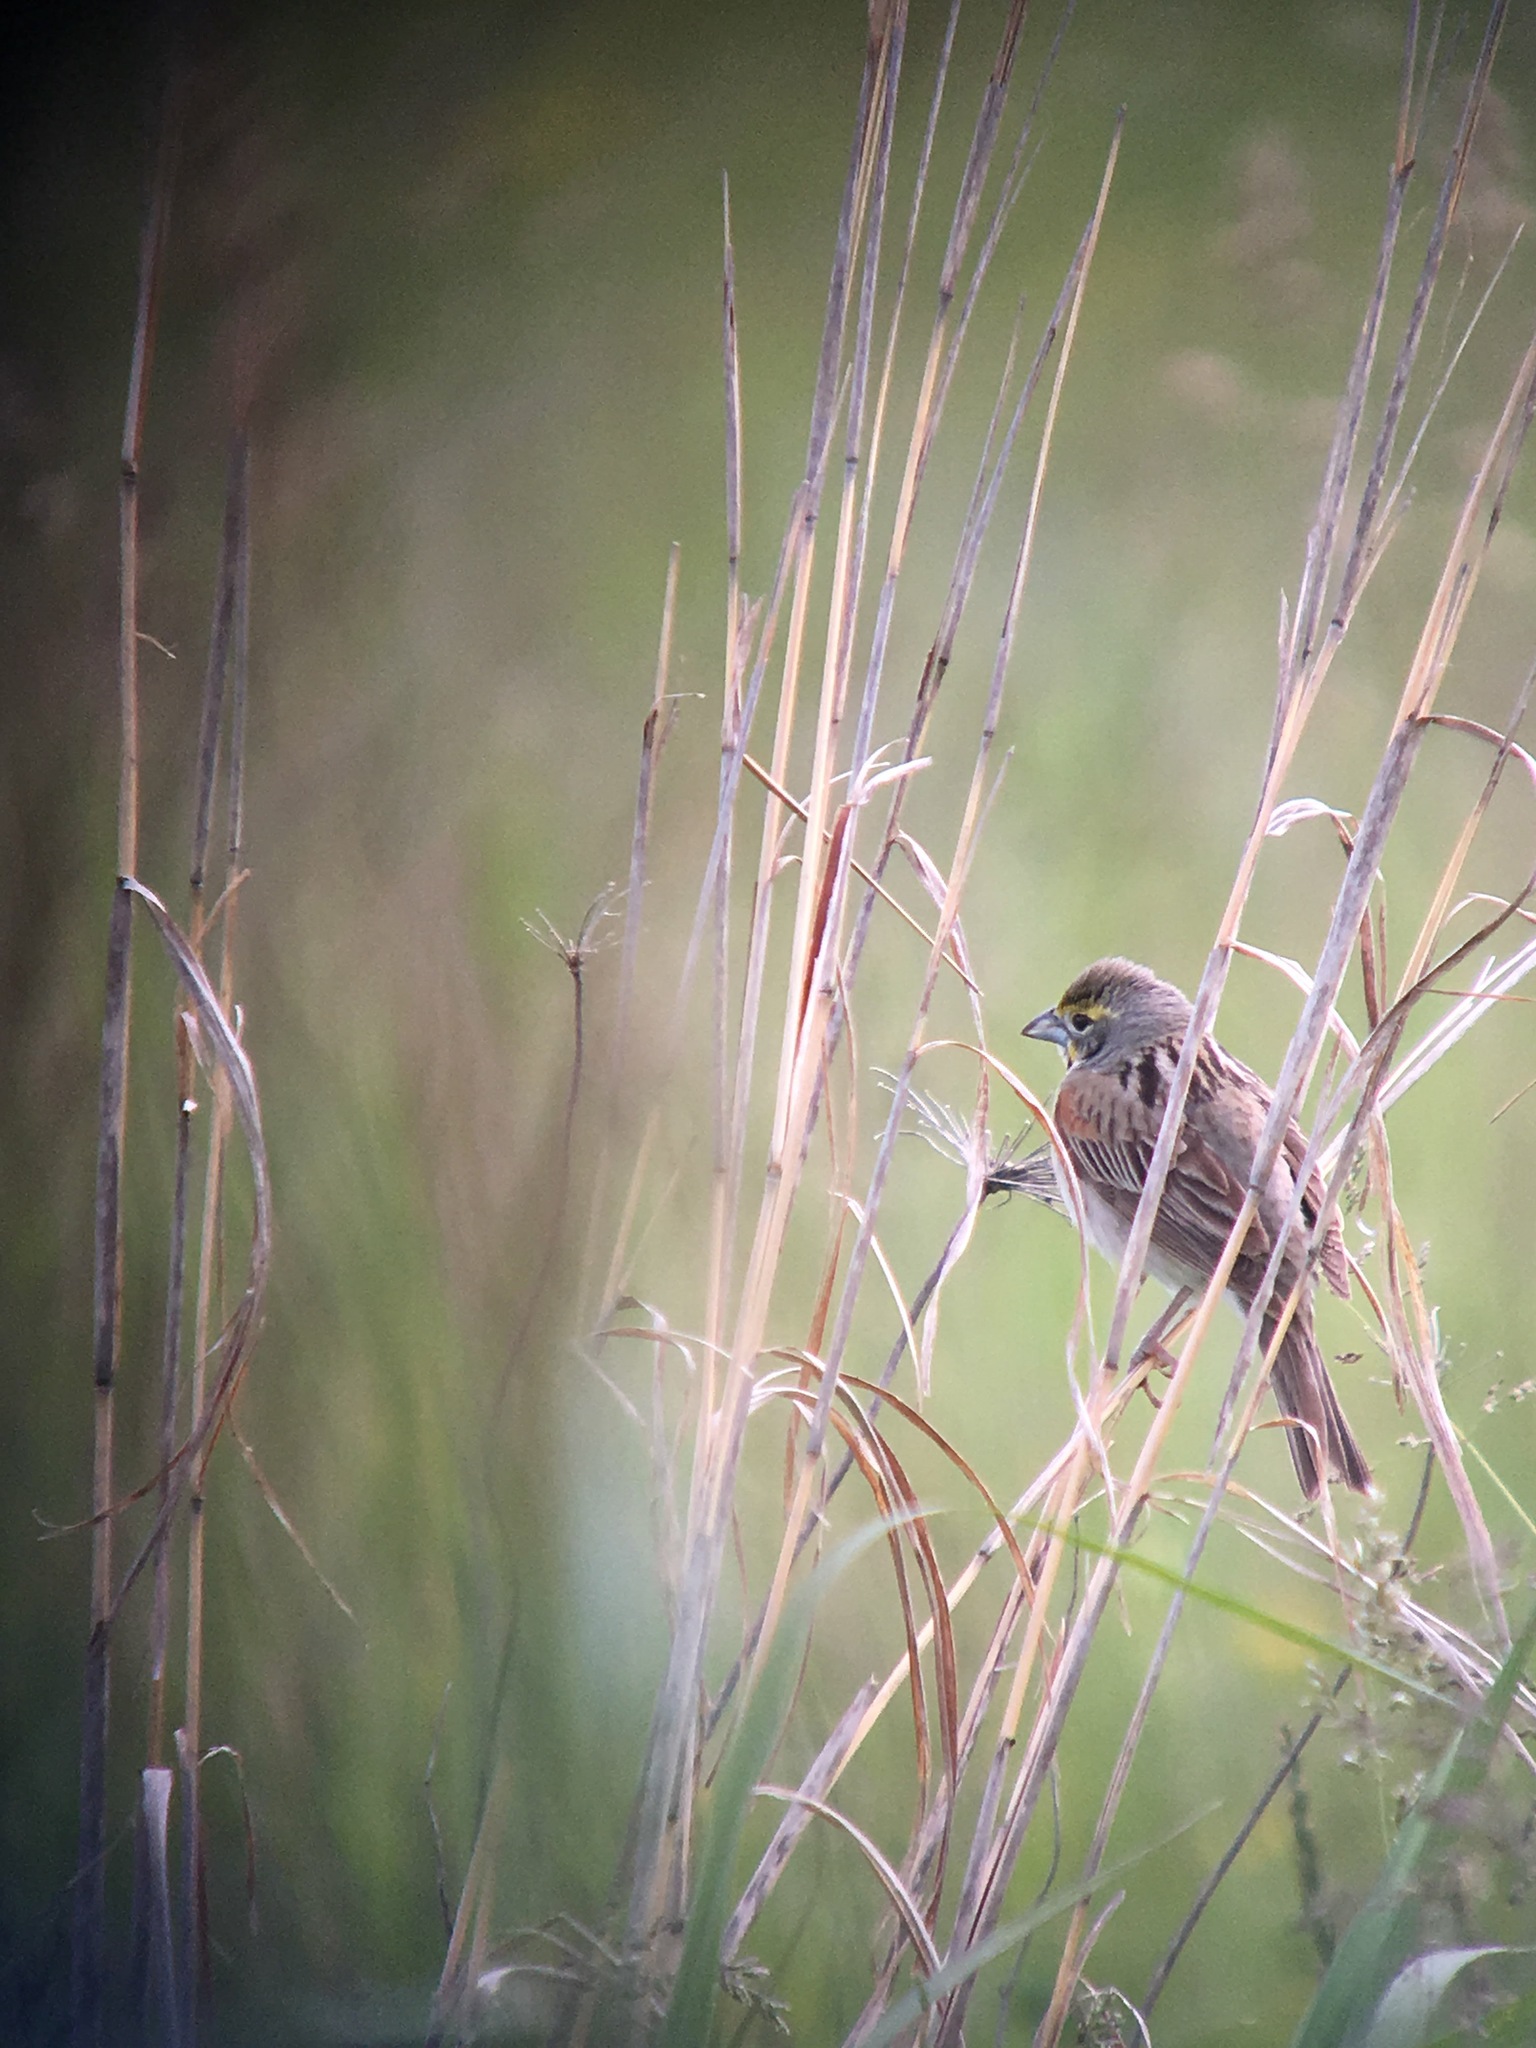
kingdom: Animalia
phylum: Chordata
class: Aves
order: Passeriformes
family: Cardinalidae
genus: Spiza
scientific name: Spiza americana
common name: Dickcissel
